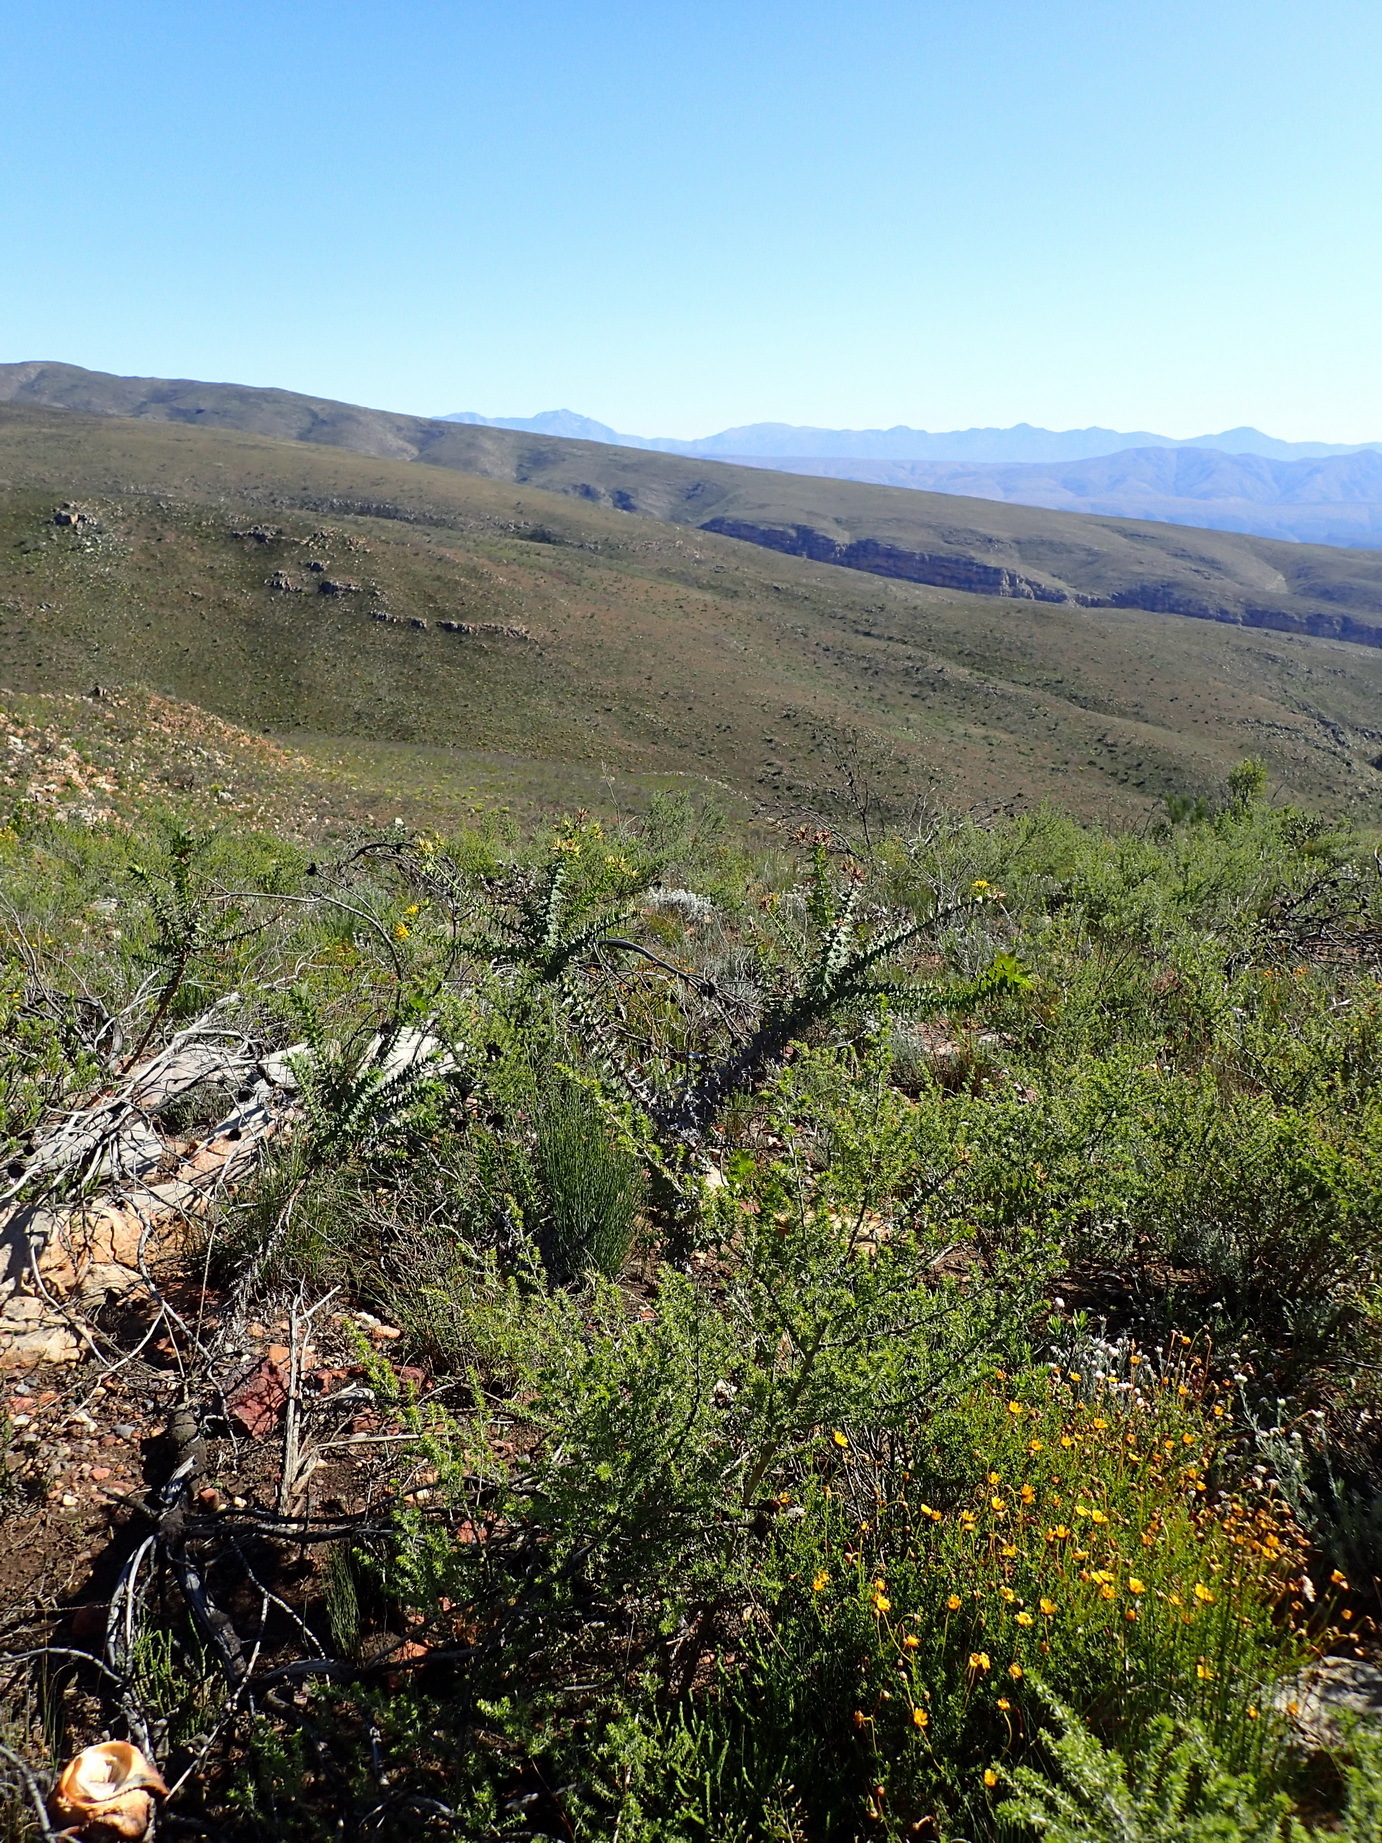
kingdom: Plantae
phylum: Tracheophyta
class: Magnoliopsida
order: Asterales
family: Asteraceae
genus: Berkheya
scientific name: Berkheya cruciata
